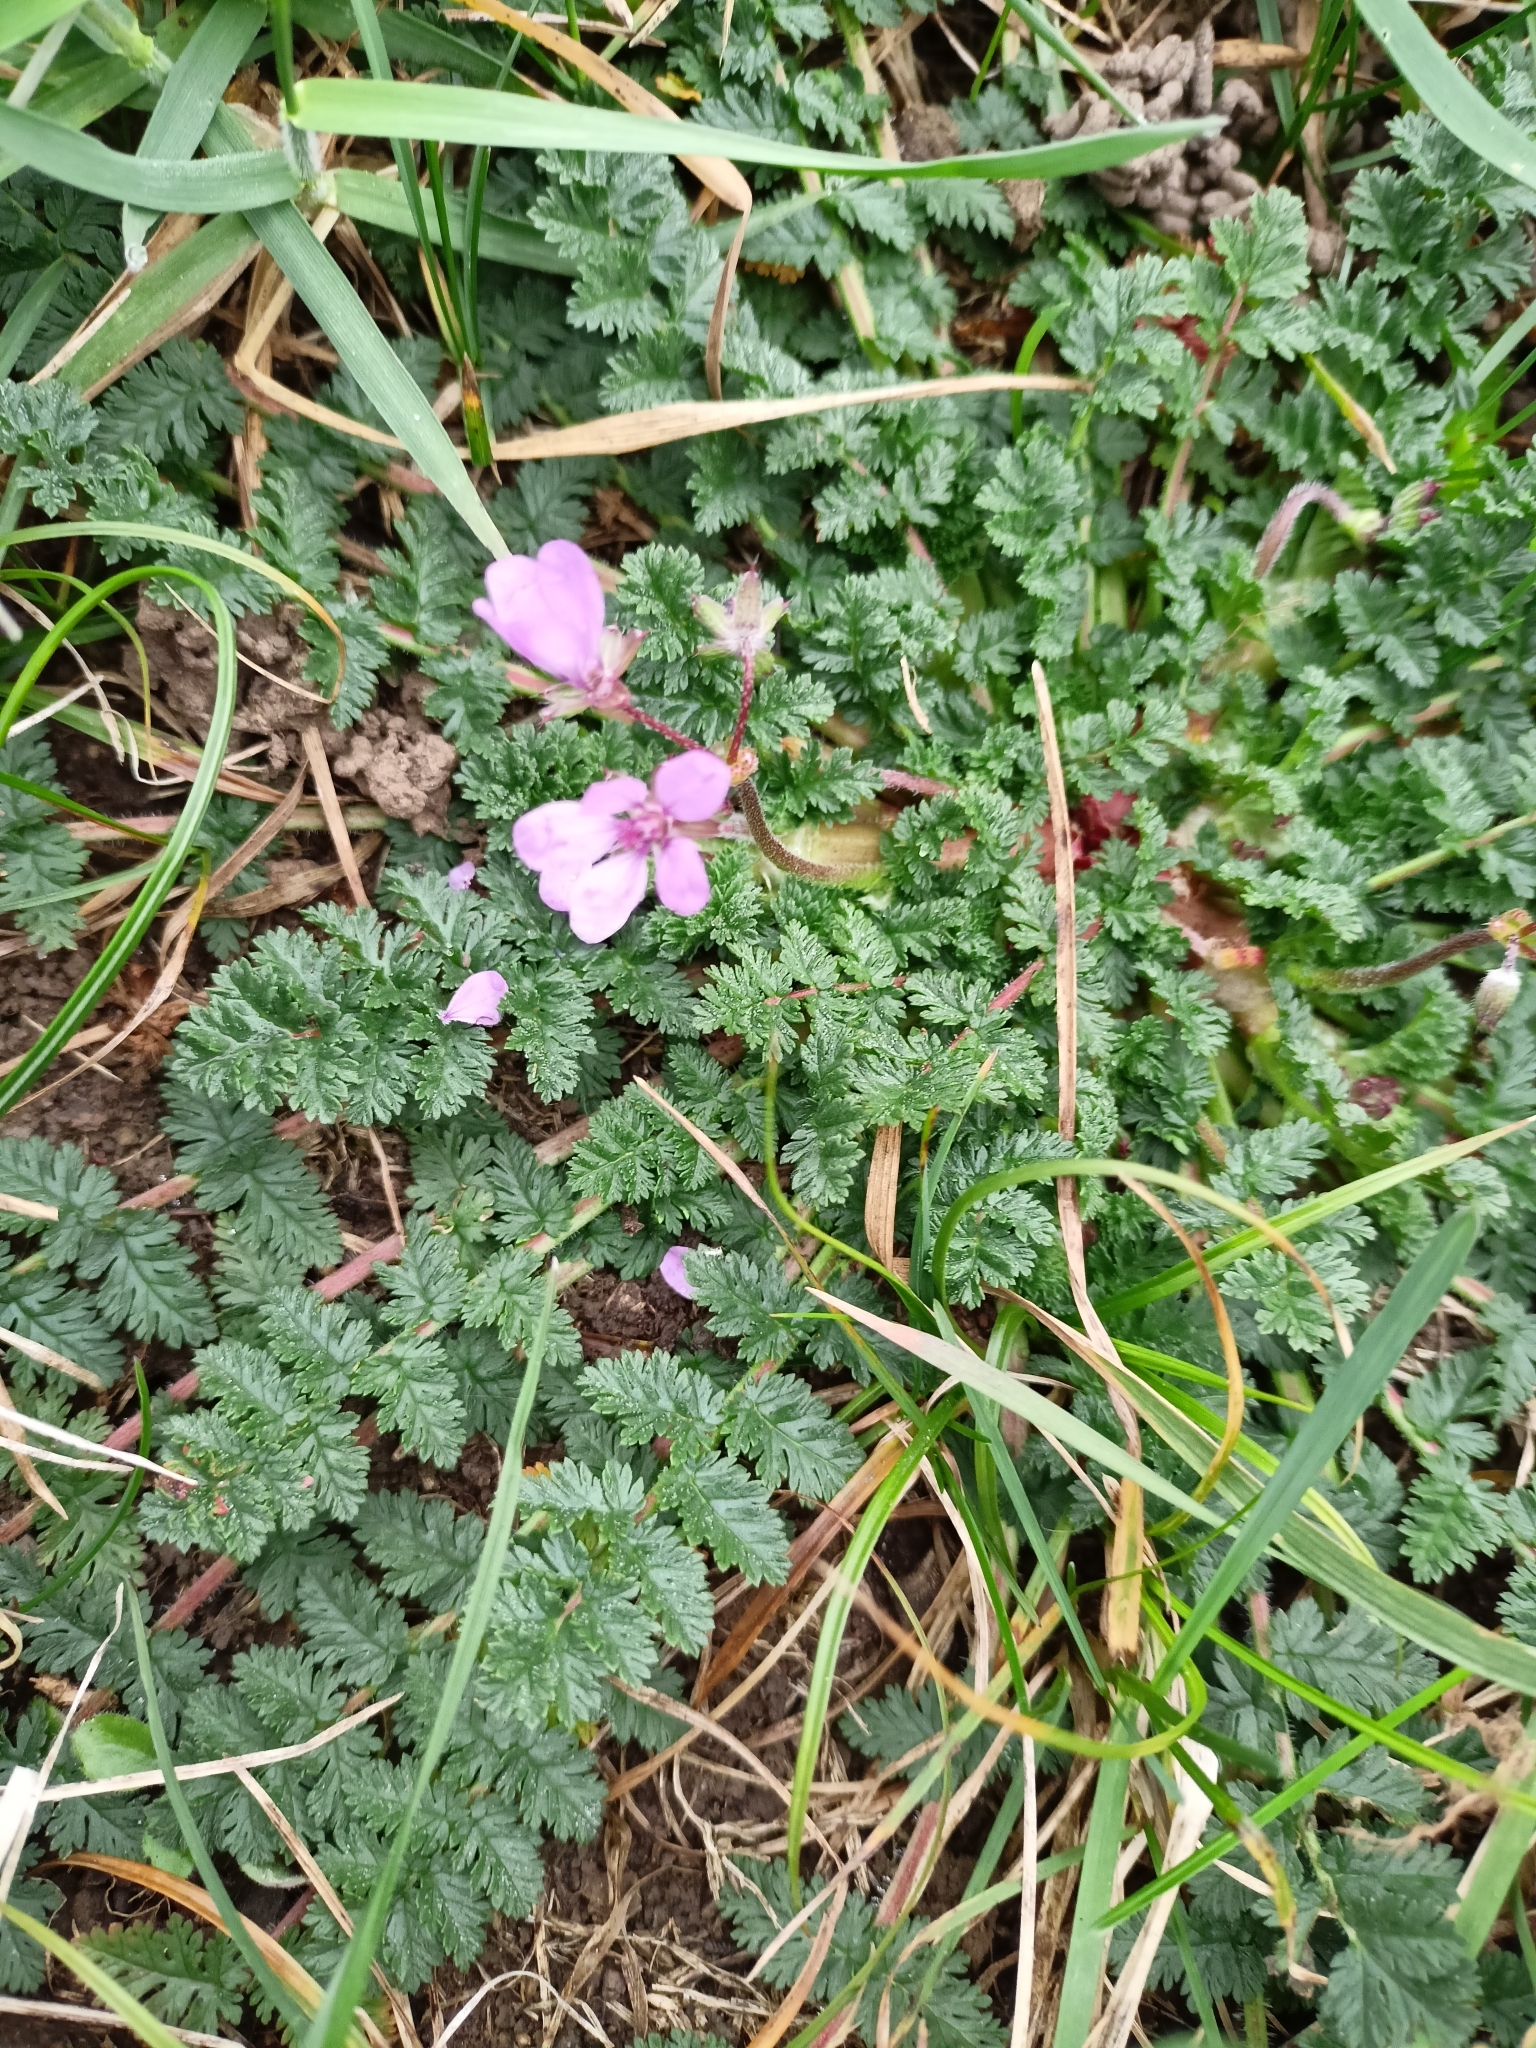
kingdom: Plantae
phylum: Tracheophyta
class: Magnoliopsida
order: Geraniales
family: Geraniaceae
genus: Erodium
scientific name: Erodium cicutarium
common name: Common stork's-bill
